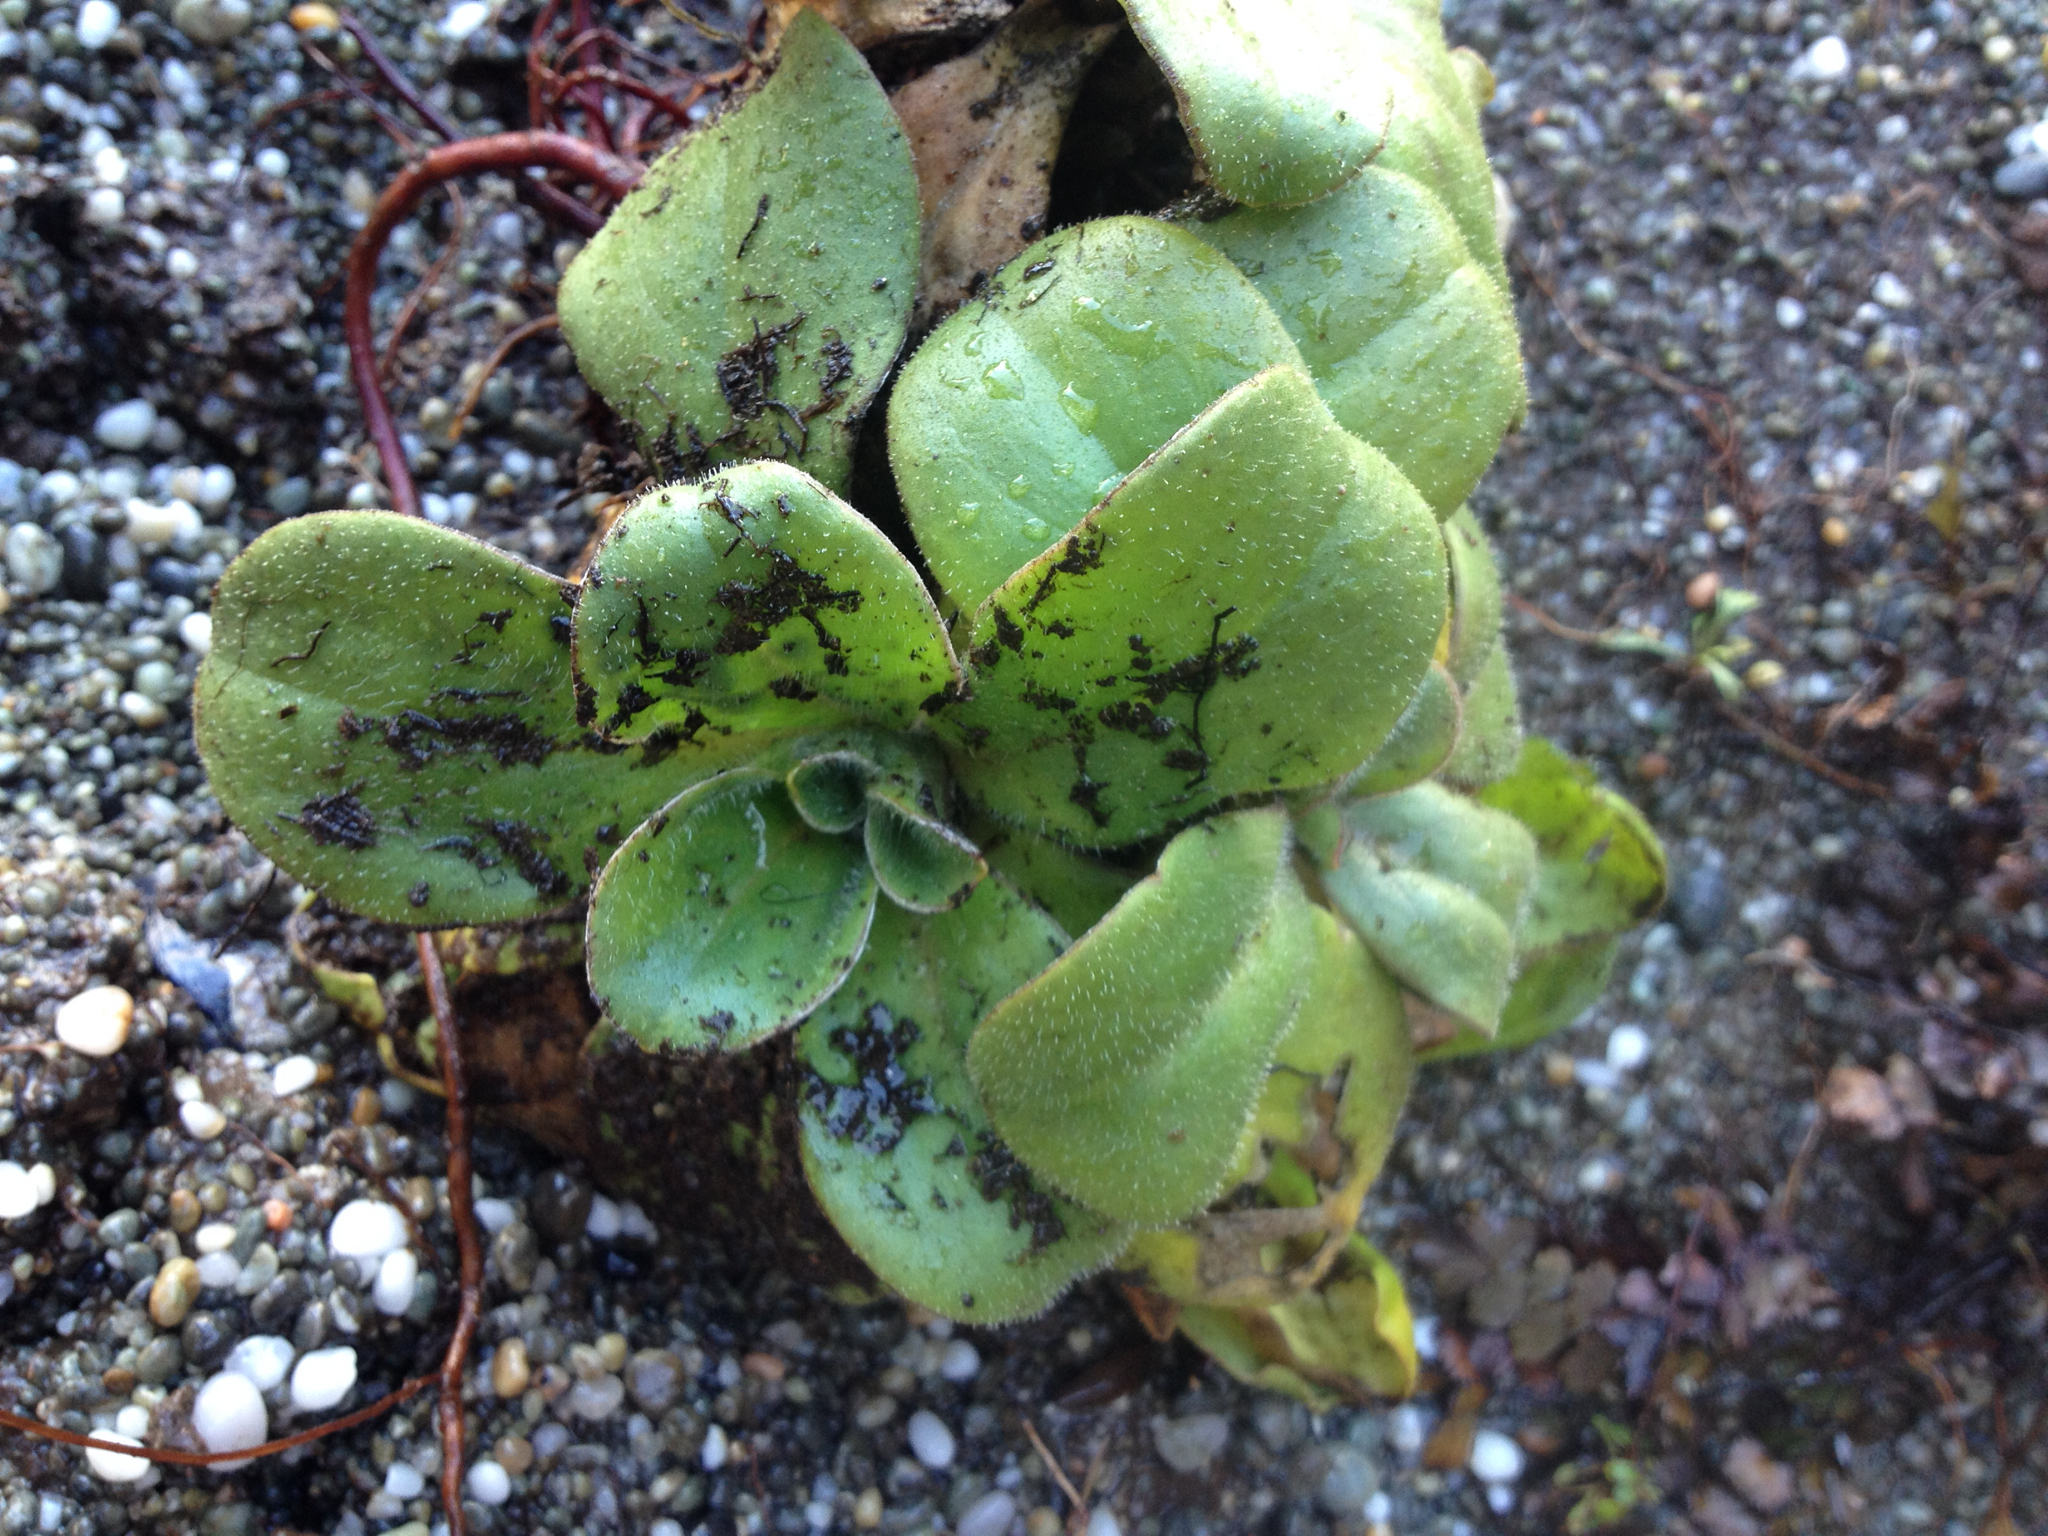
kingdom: Plantae
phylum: Tracheophyta
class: Magnoliopsida
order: Asterales
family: Asteraceae
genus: Craspedia
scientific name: Craspedia
